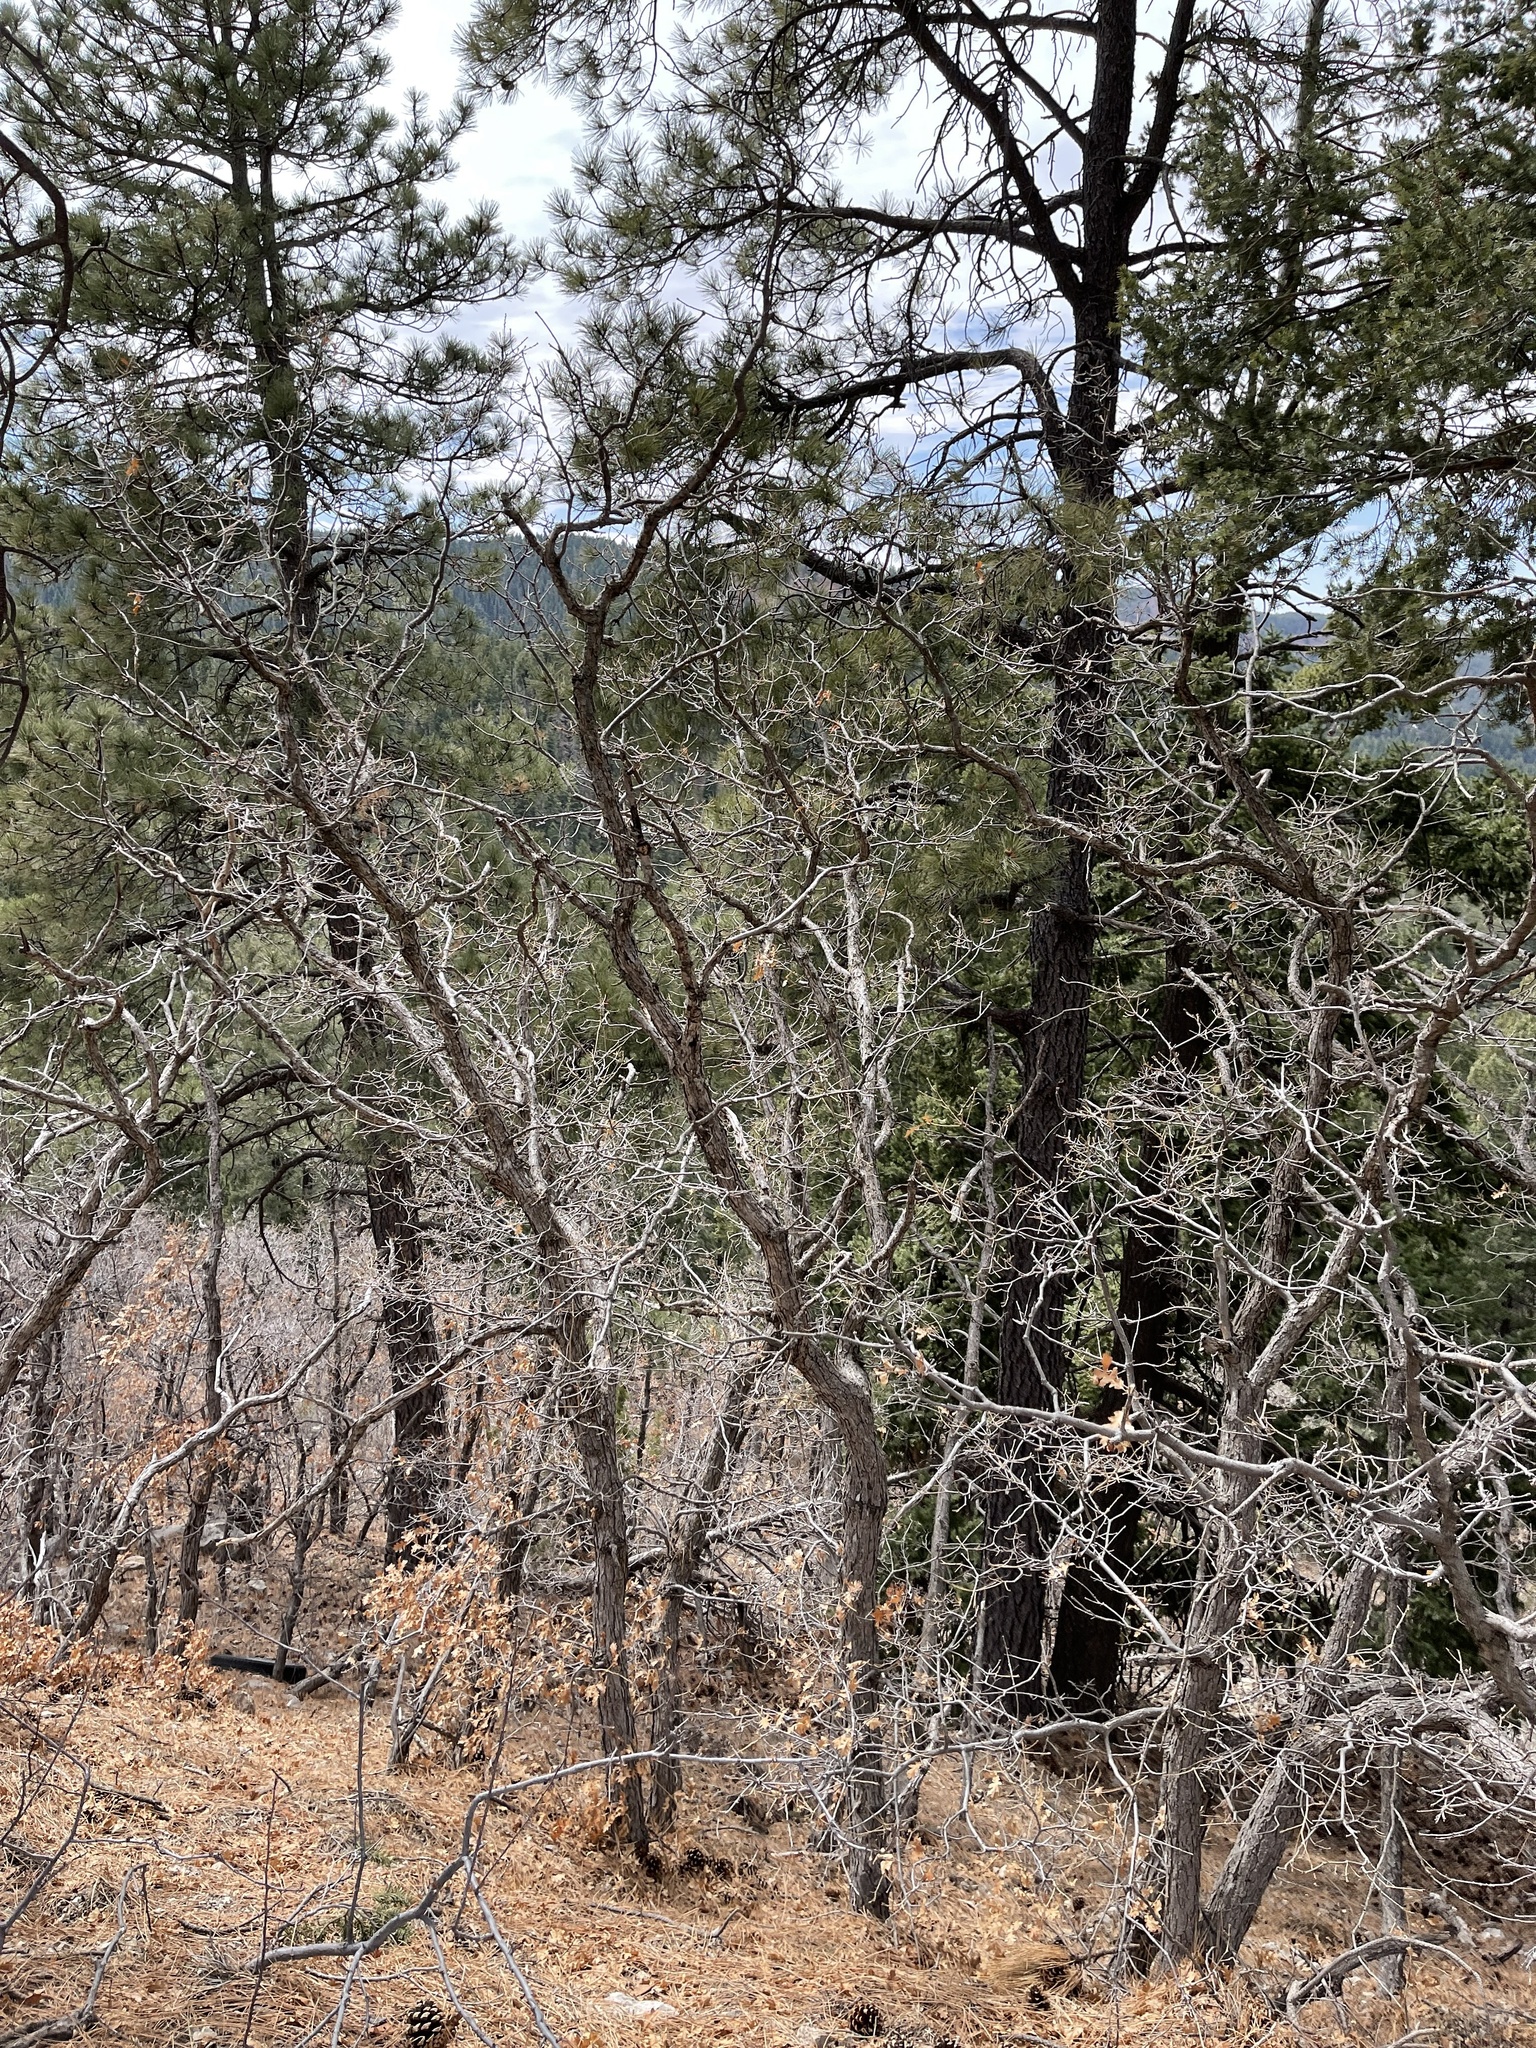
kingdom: Plantae
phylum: Tracheophyta
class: Magnoliopsida
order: Fagales
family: Fagaceae
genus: Quercus
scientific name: Quercus gambelii
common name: Gambel oak
